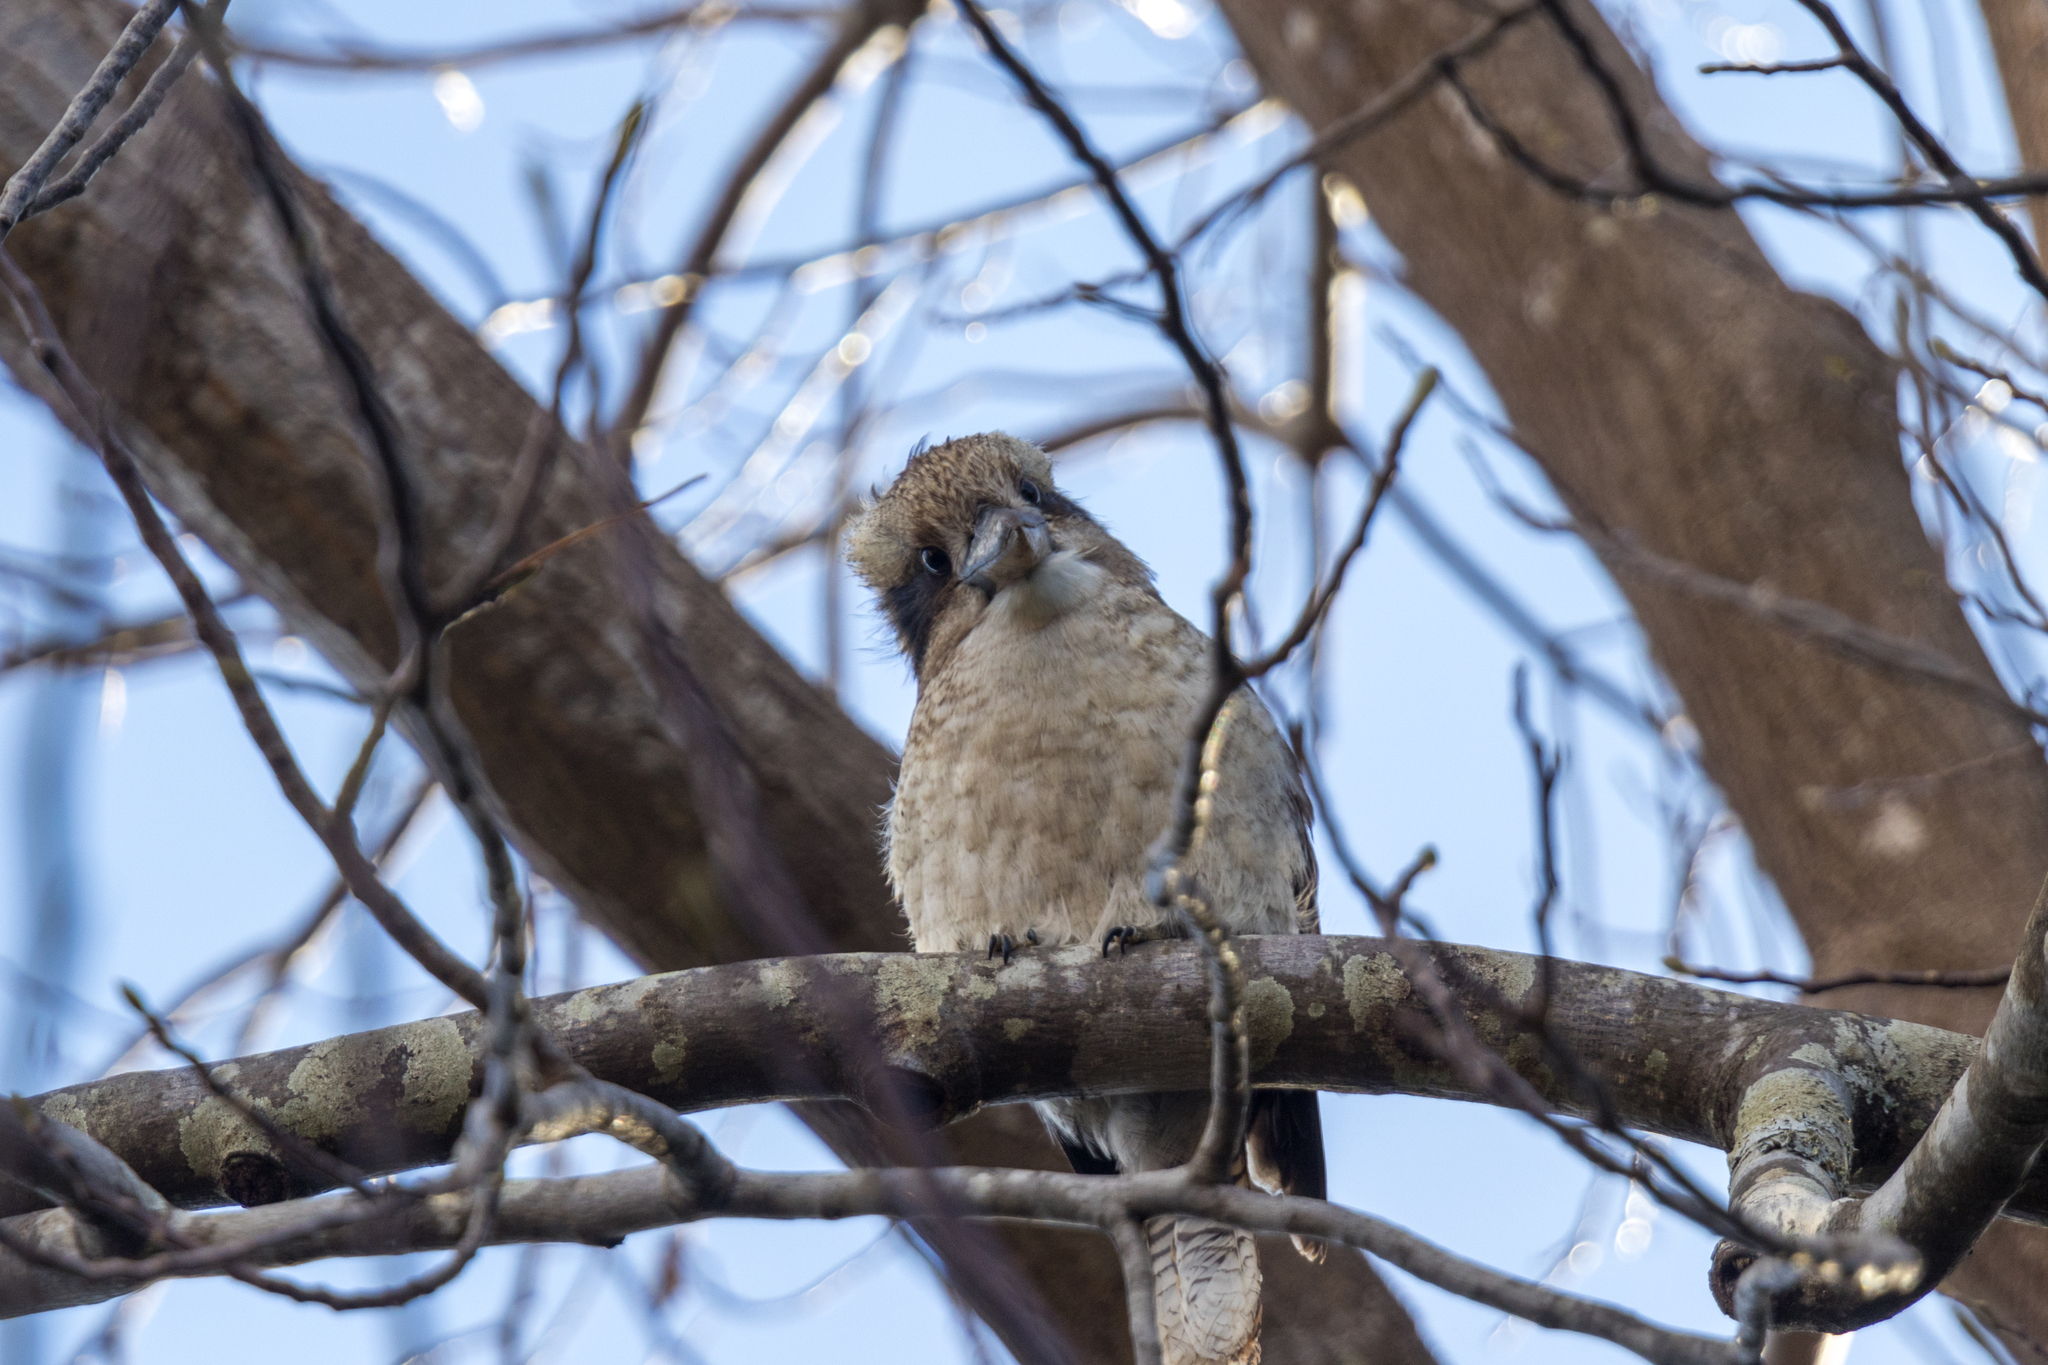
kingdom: Animalia
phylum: Chordata
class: Aves
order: Coraciiformes
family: Alcedinidae
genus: Dacelo
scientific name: Dacelo novaeguineae
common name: Laughing kookaburra
